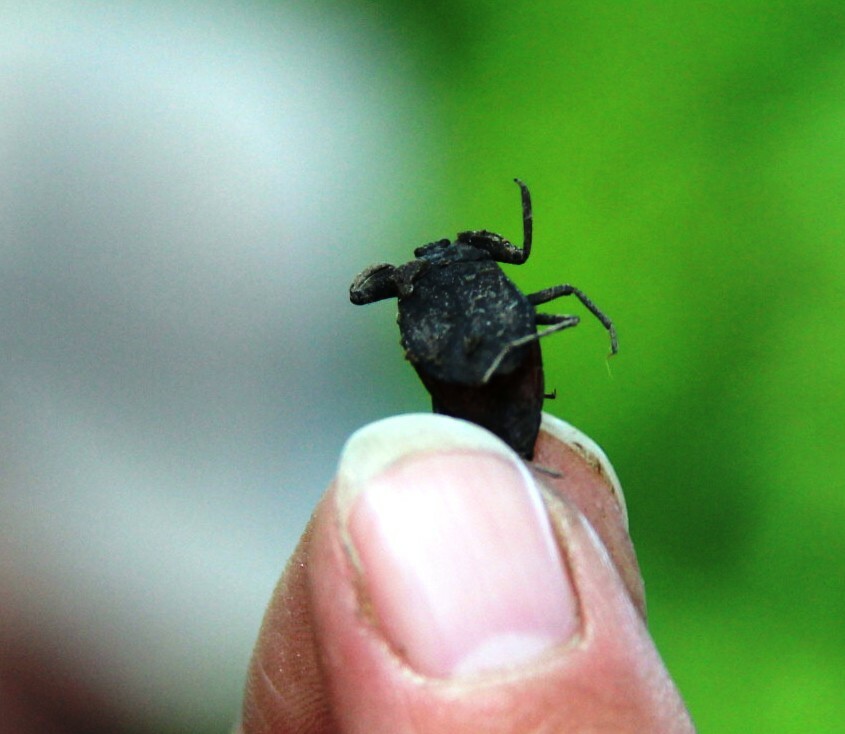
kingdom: Animalia
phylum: Arthropoda
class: Insecta
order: Hemiptera
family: Nepidae
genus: Nepa
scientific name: Nepa cinerea
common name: Water scorpion
